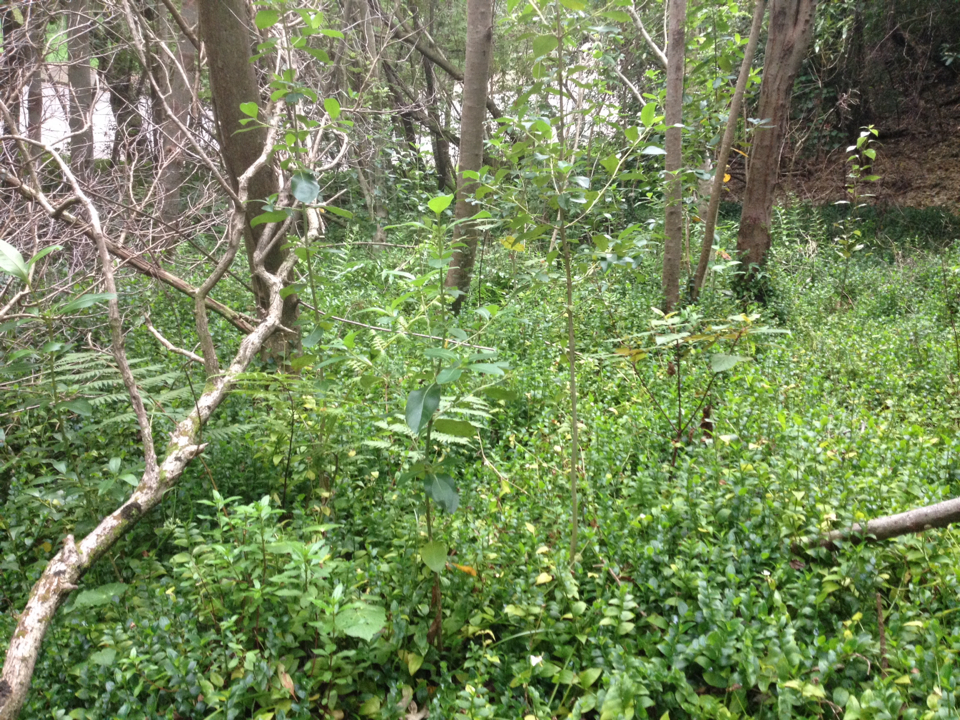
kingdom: Plantae
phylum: Tracheophyta
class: Magnoliopsida
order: Oxalidales
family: Elaeocarpaceae
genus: Aristotelia
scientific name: Aristotelia serrata
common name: New zealand wineberry
